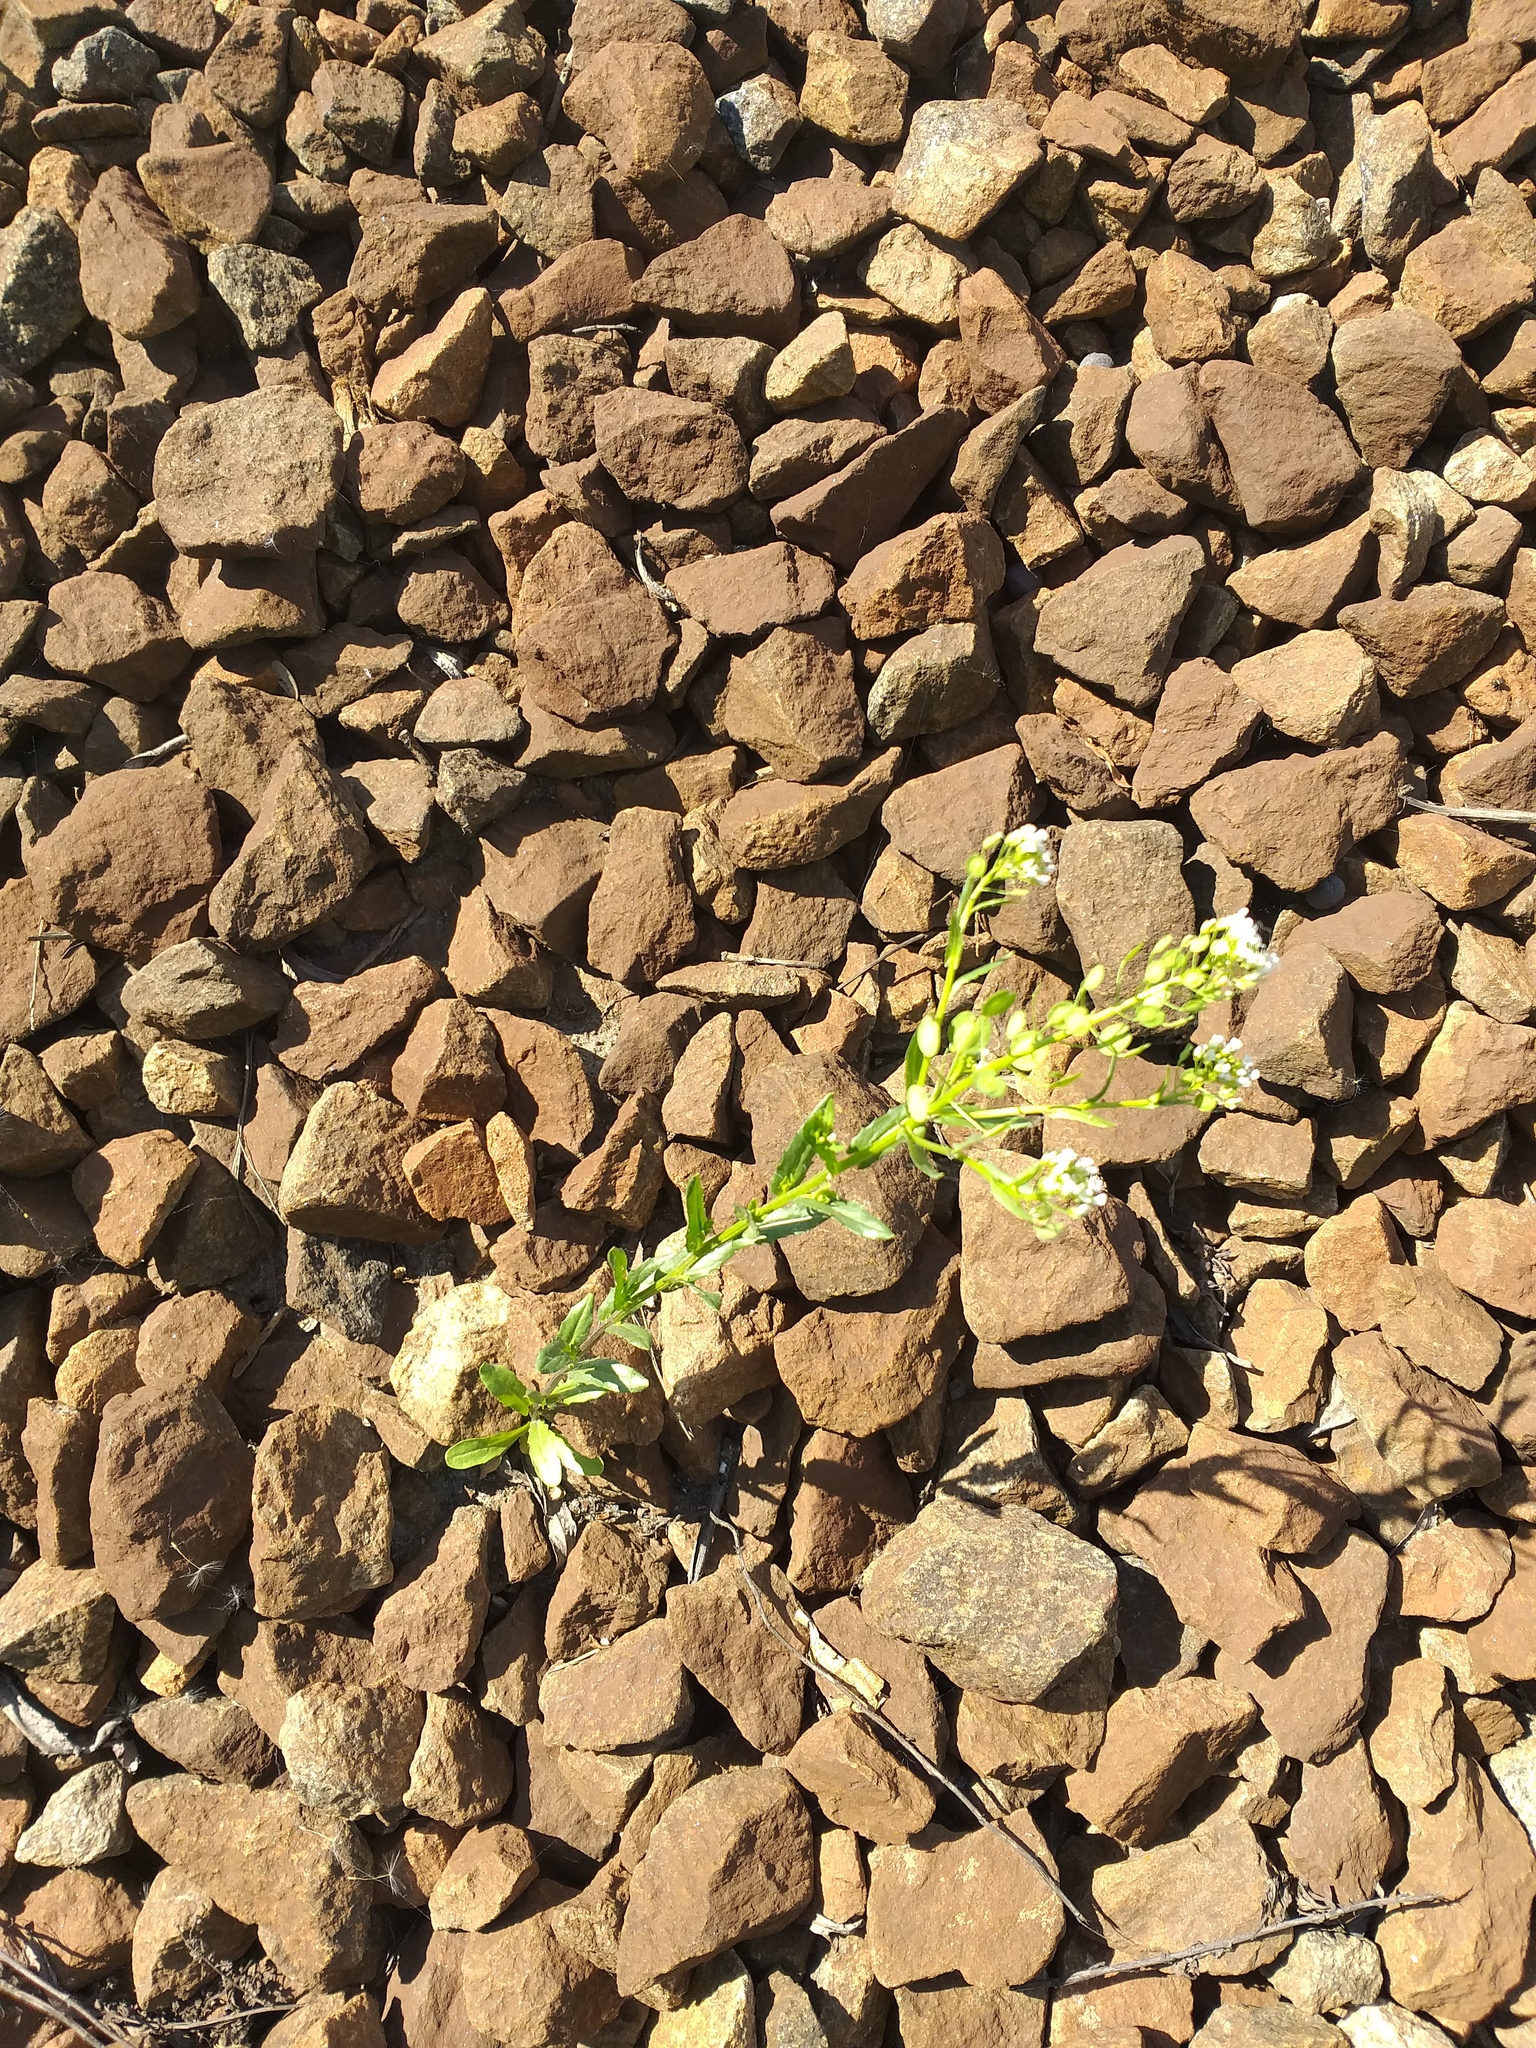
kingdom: Plantae
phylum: Tracheophyta
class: Magnoliopsida
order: Brassicales
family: Brassicaceae
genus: Thlaspi
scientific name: Thlaspi arvense
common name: Field pennycress
